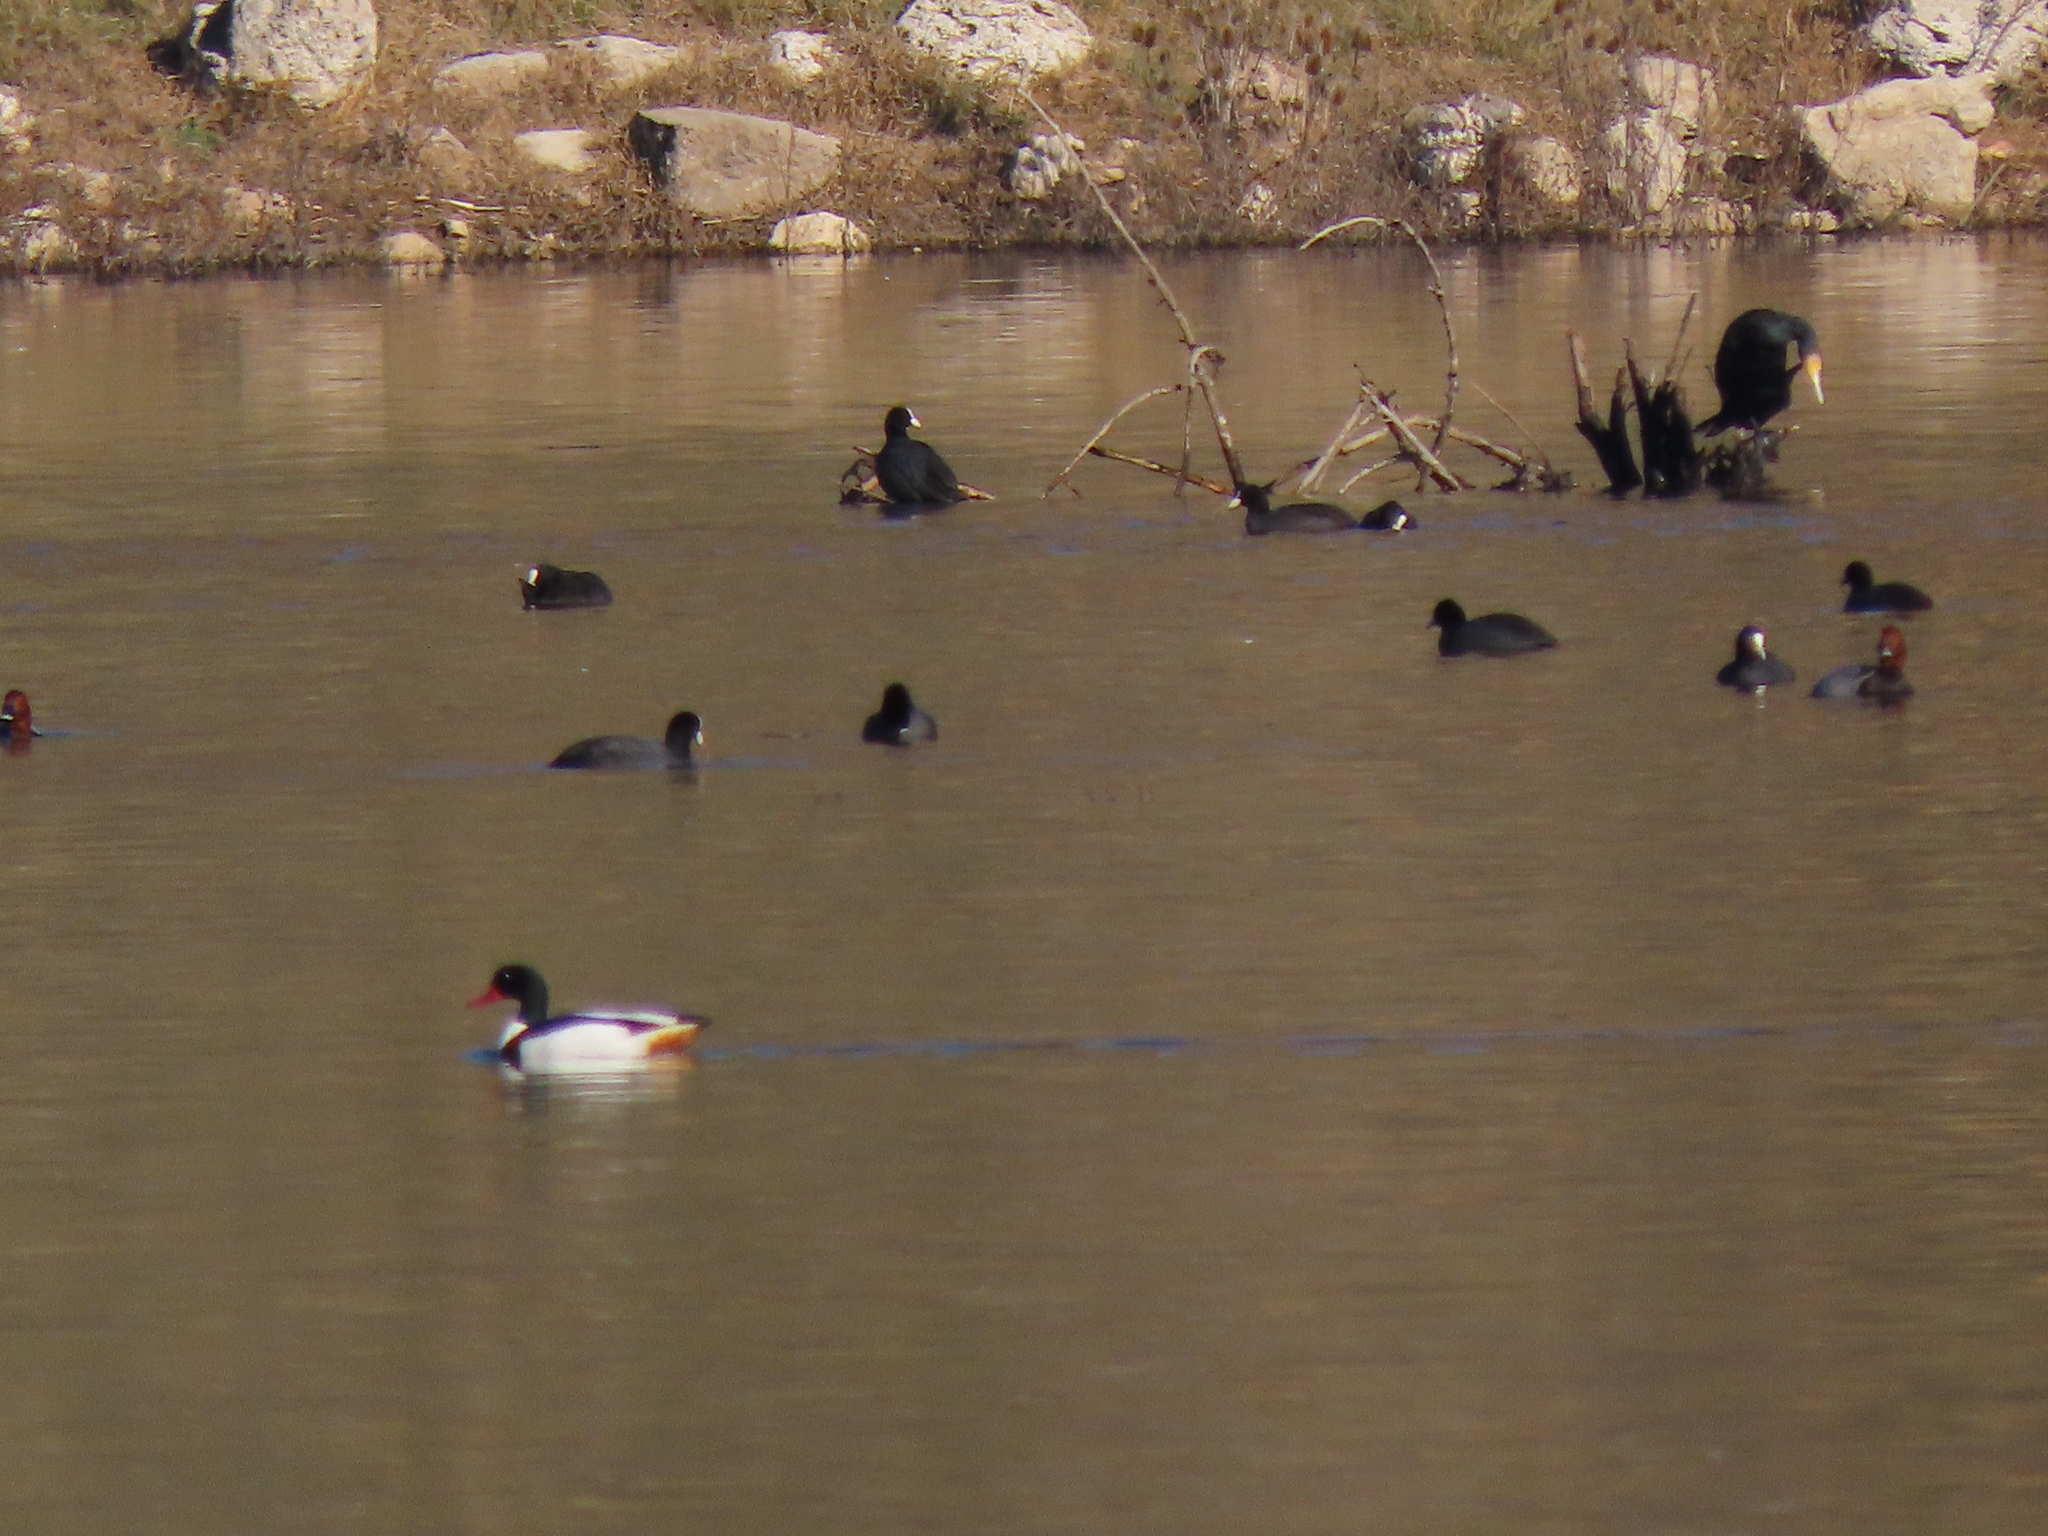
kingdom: Animalia
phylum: Chordata
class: Aves
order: Anseriformes
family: Anatidae
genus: Tadorna
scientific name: Tadorna tadorna
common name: Common shelduck
